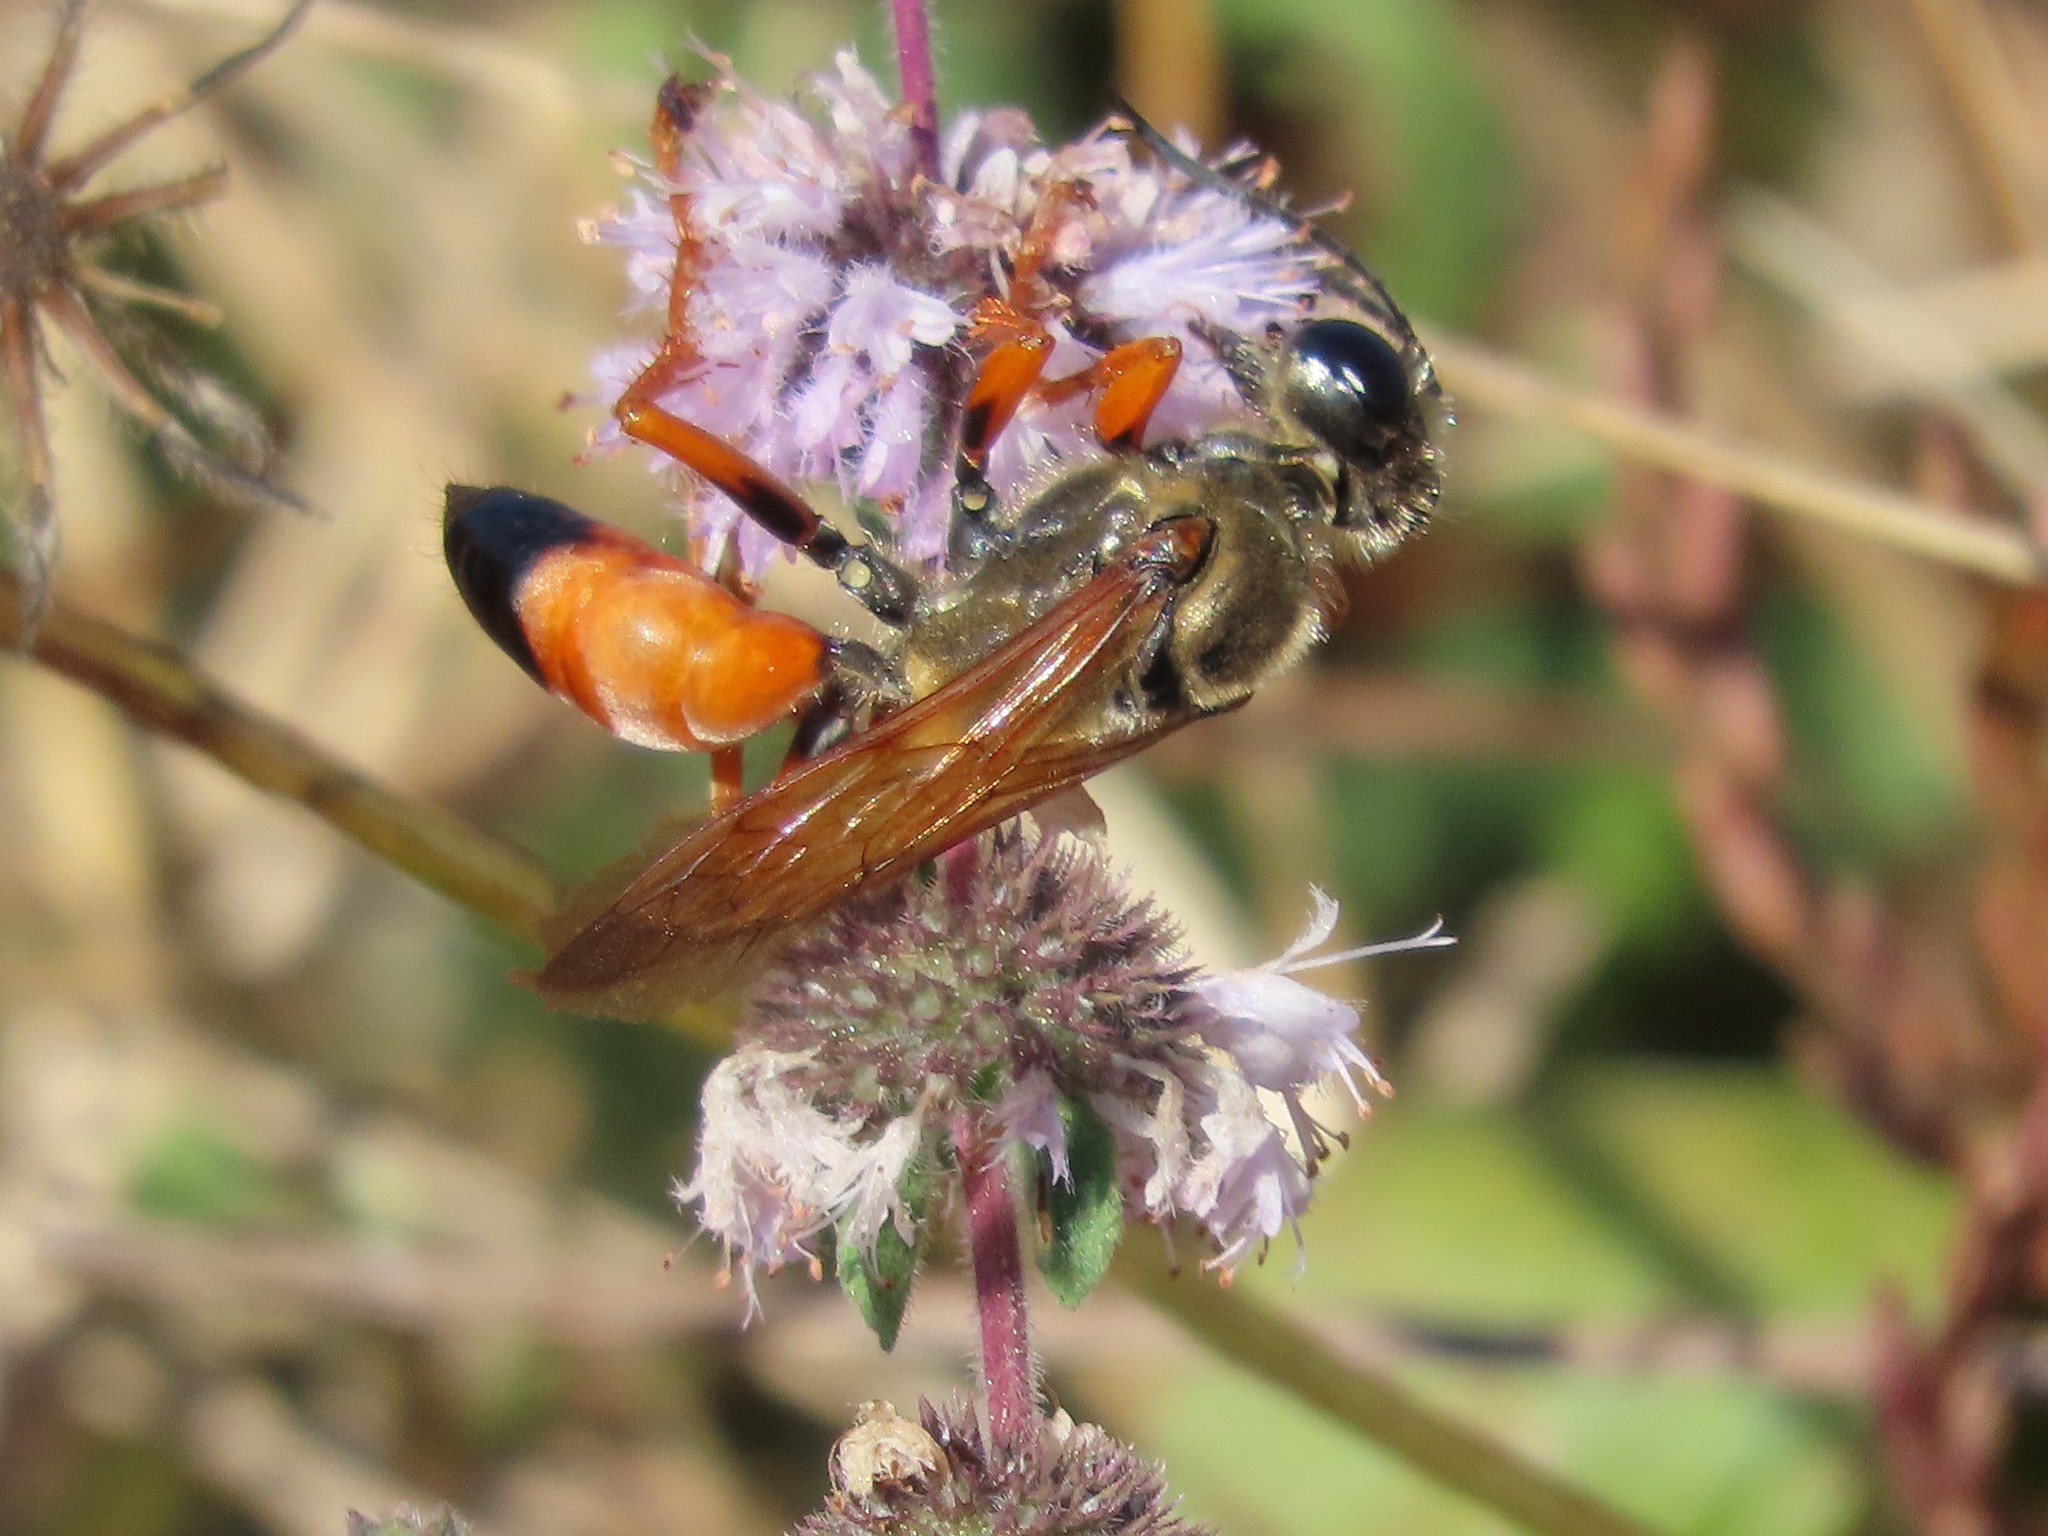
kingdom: Animalia
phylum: Arthropoda
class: Insecta
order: Hymenoptera
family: Sphecidae
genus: Sphex
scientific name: Sphex ichneumoneus
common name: Great golden digger wasp
